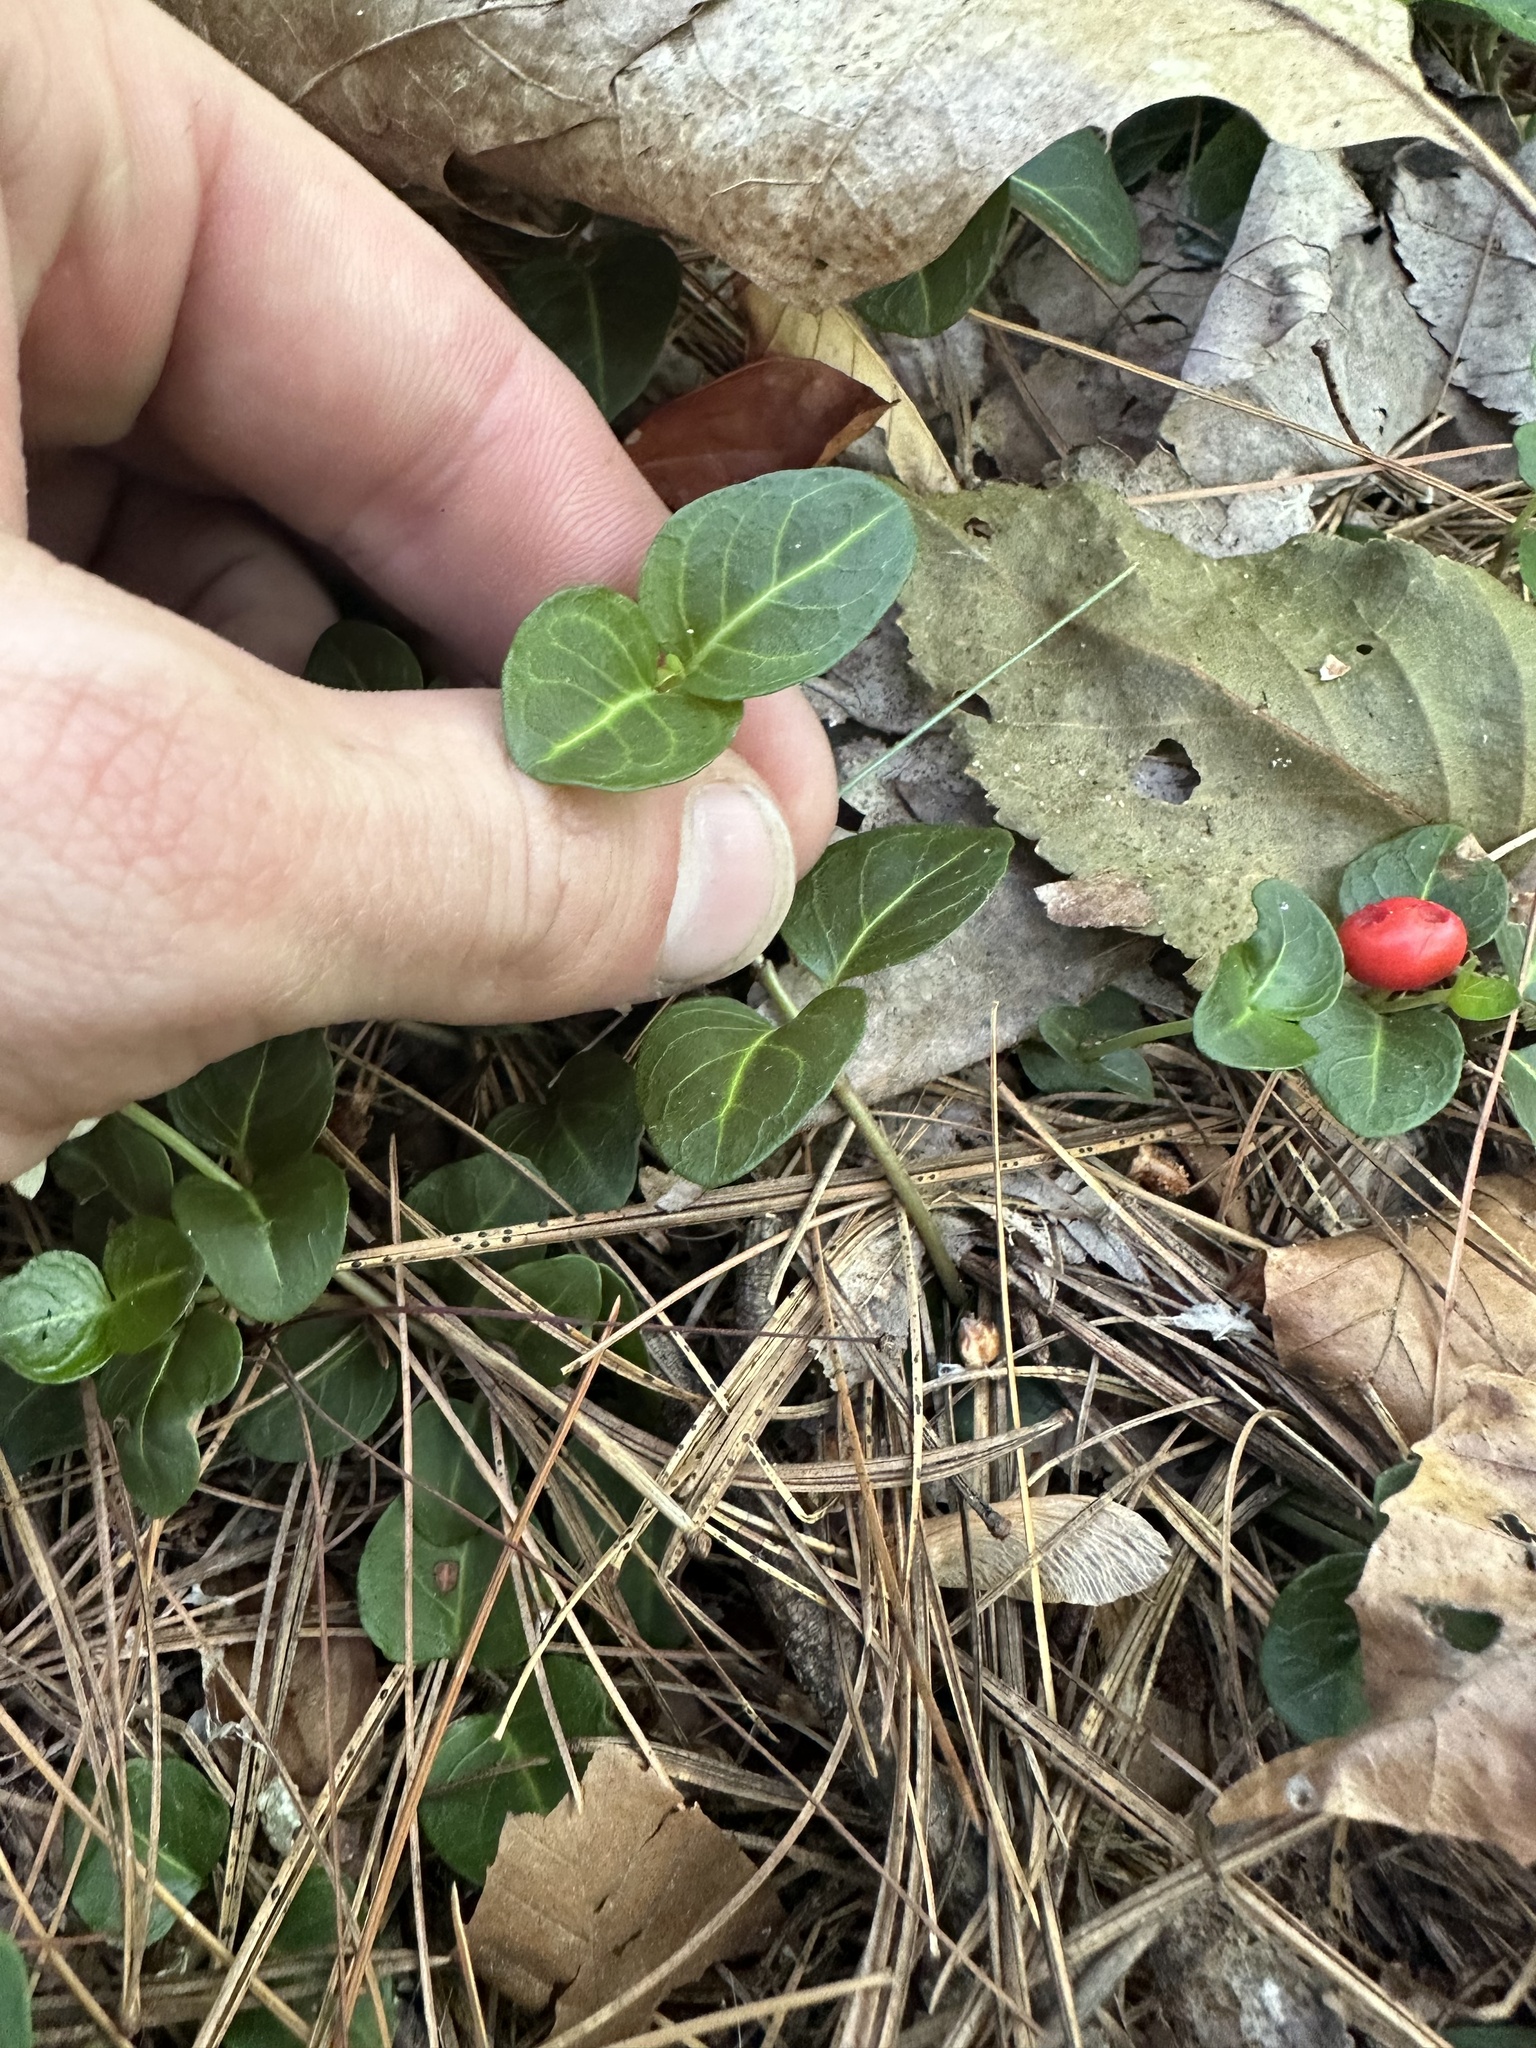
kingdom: Plantae
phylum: Tracheophyta
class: Magnoliopsida
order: Gentianales
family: Rubiaceae
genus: Mitchella
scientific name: Mitchella repens
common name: Partridge-berry
